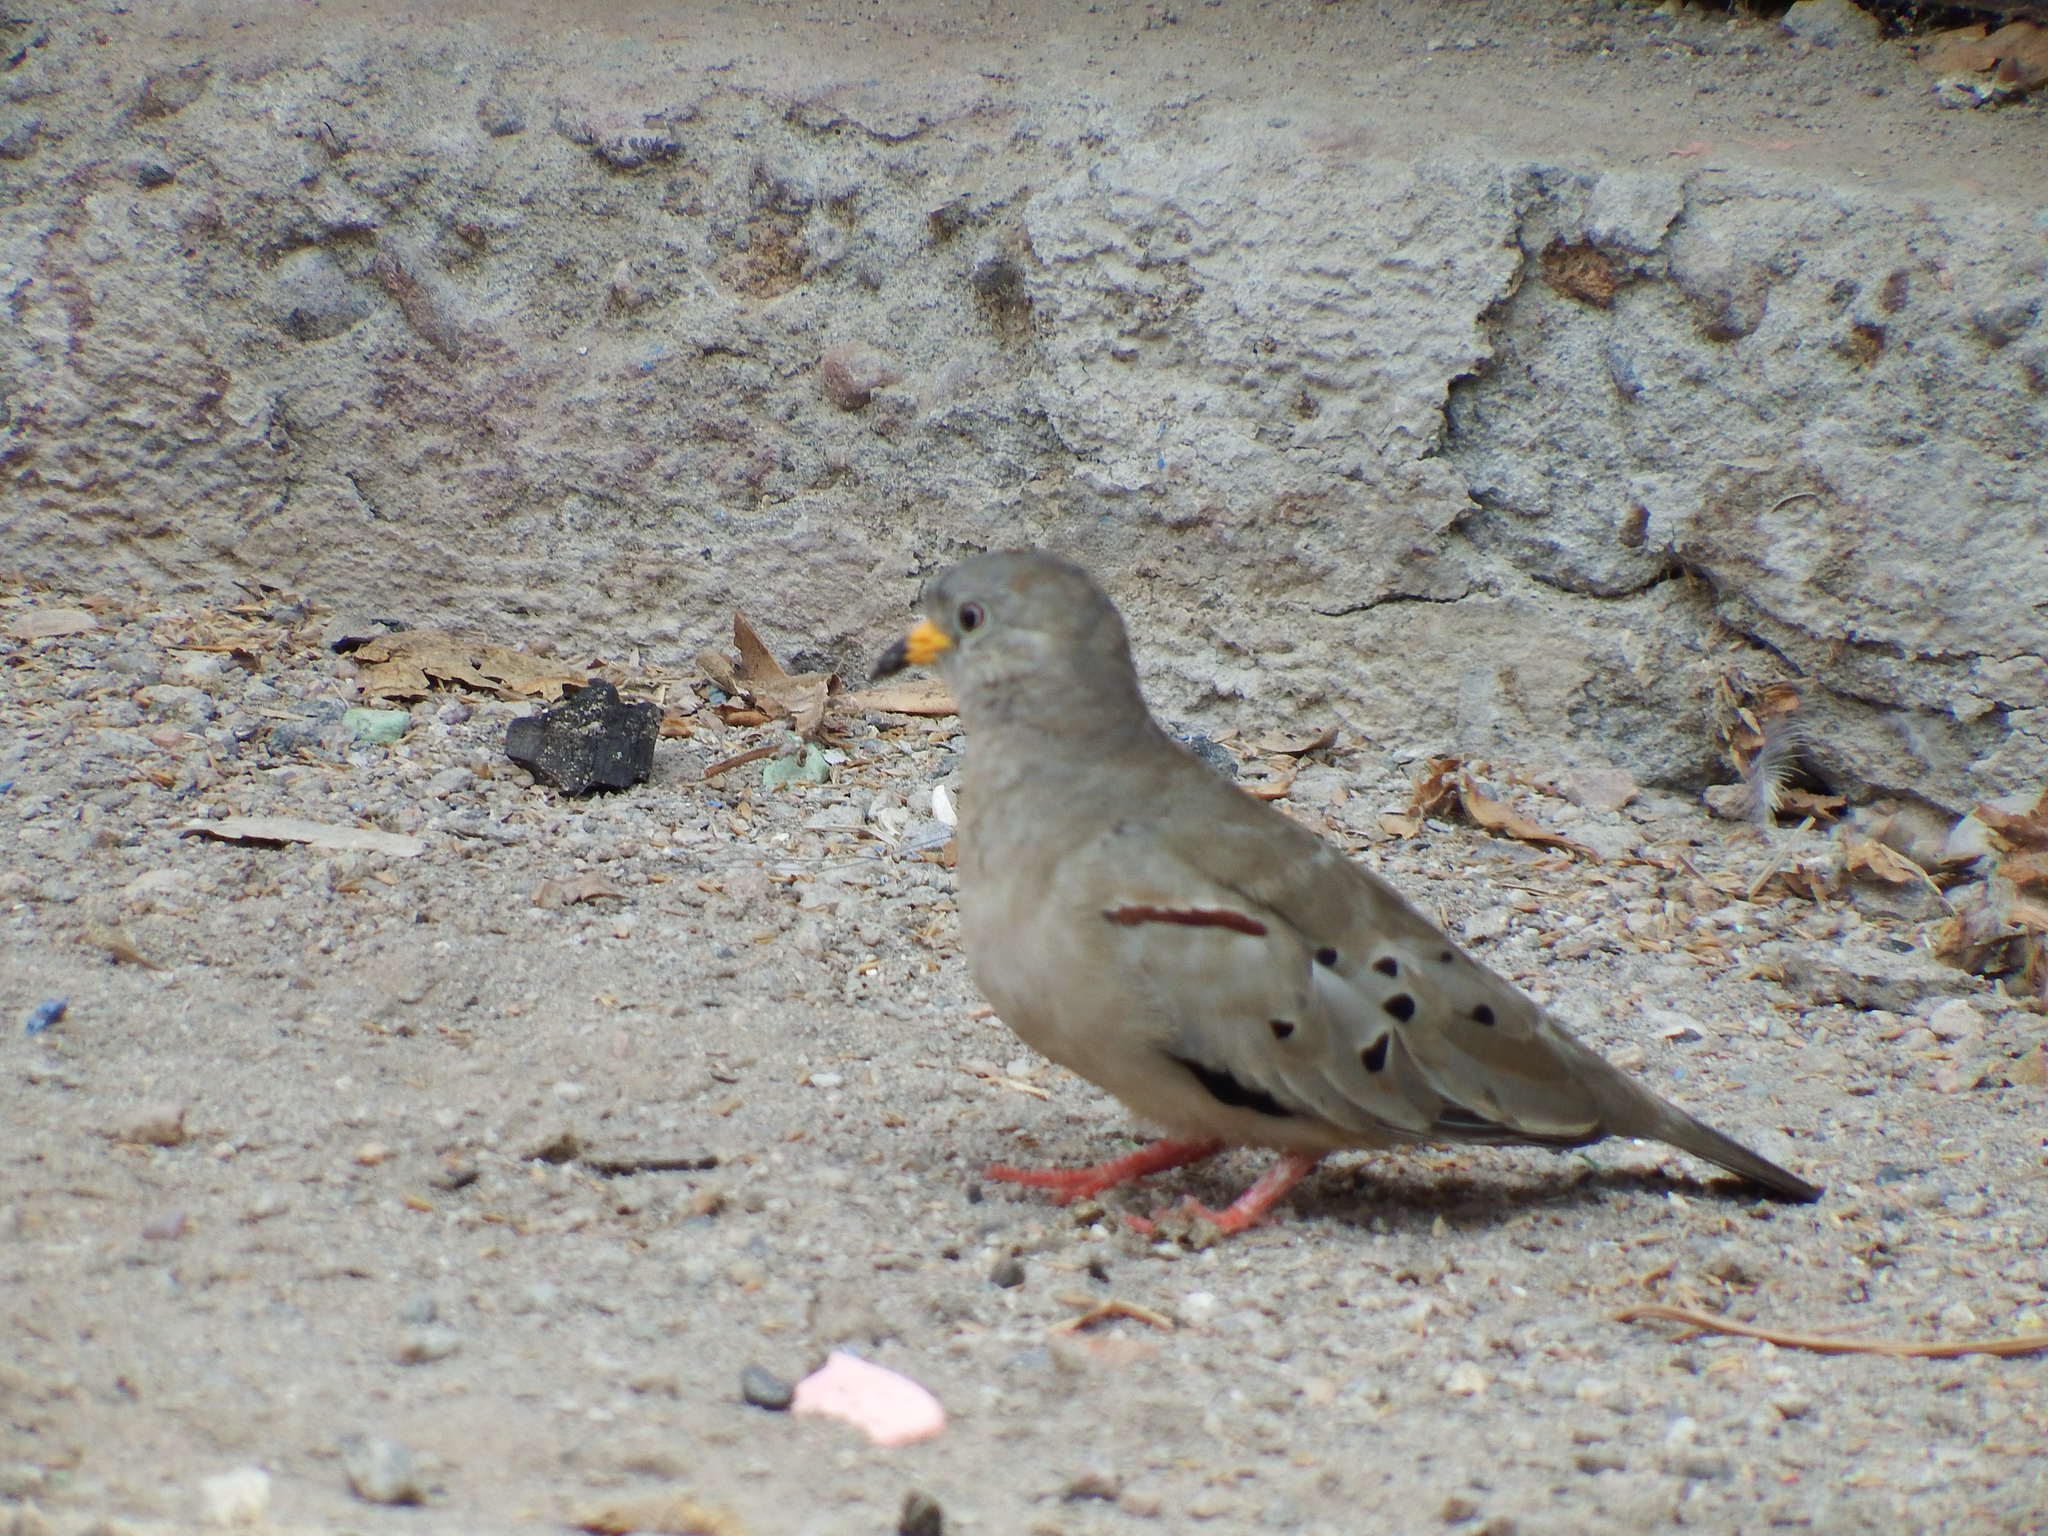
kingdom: Animalia
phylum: Chordata
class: Aves
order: Columbiformes
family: Columbidae
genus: Columbina
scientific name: Columbina cruziana
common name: Croaking ground dove
